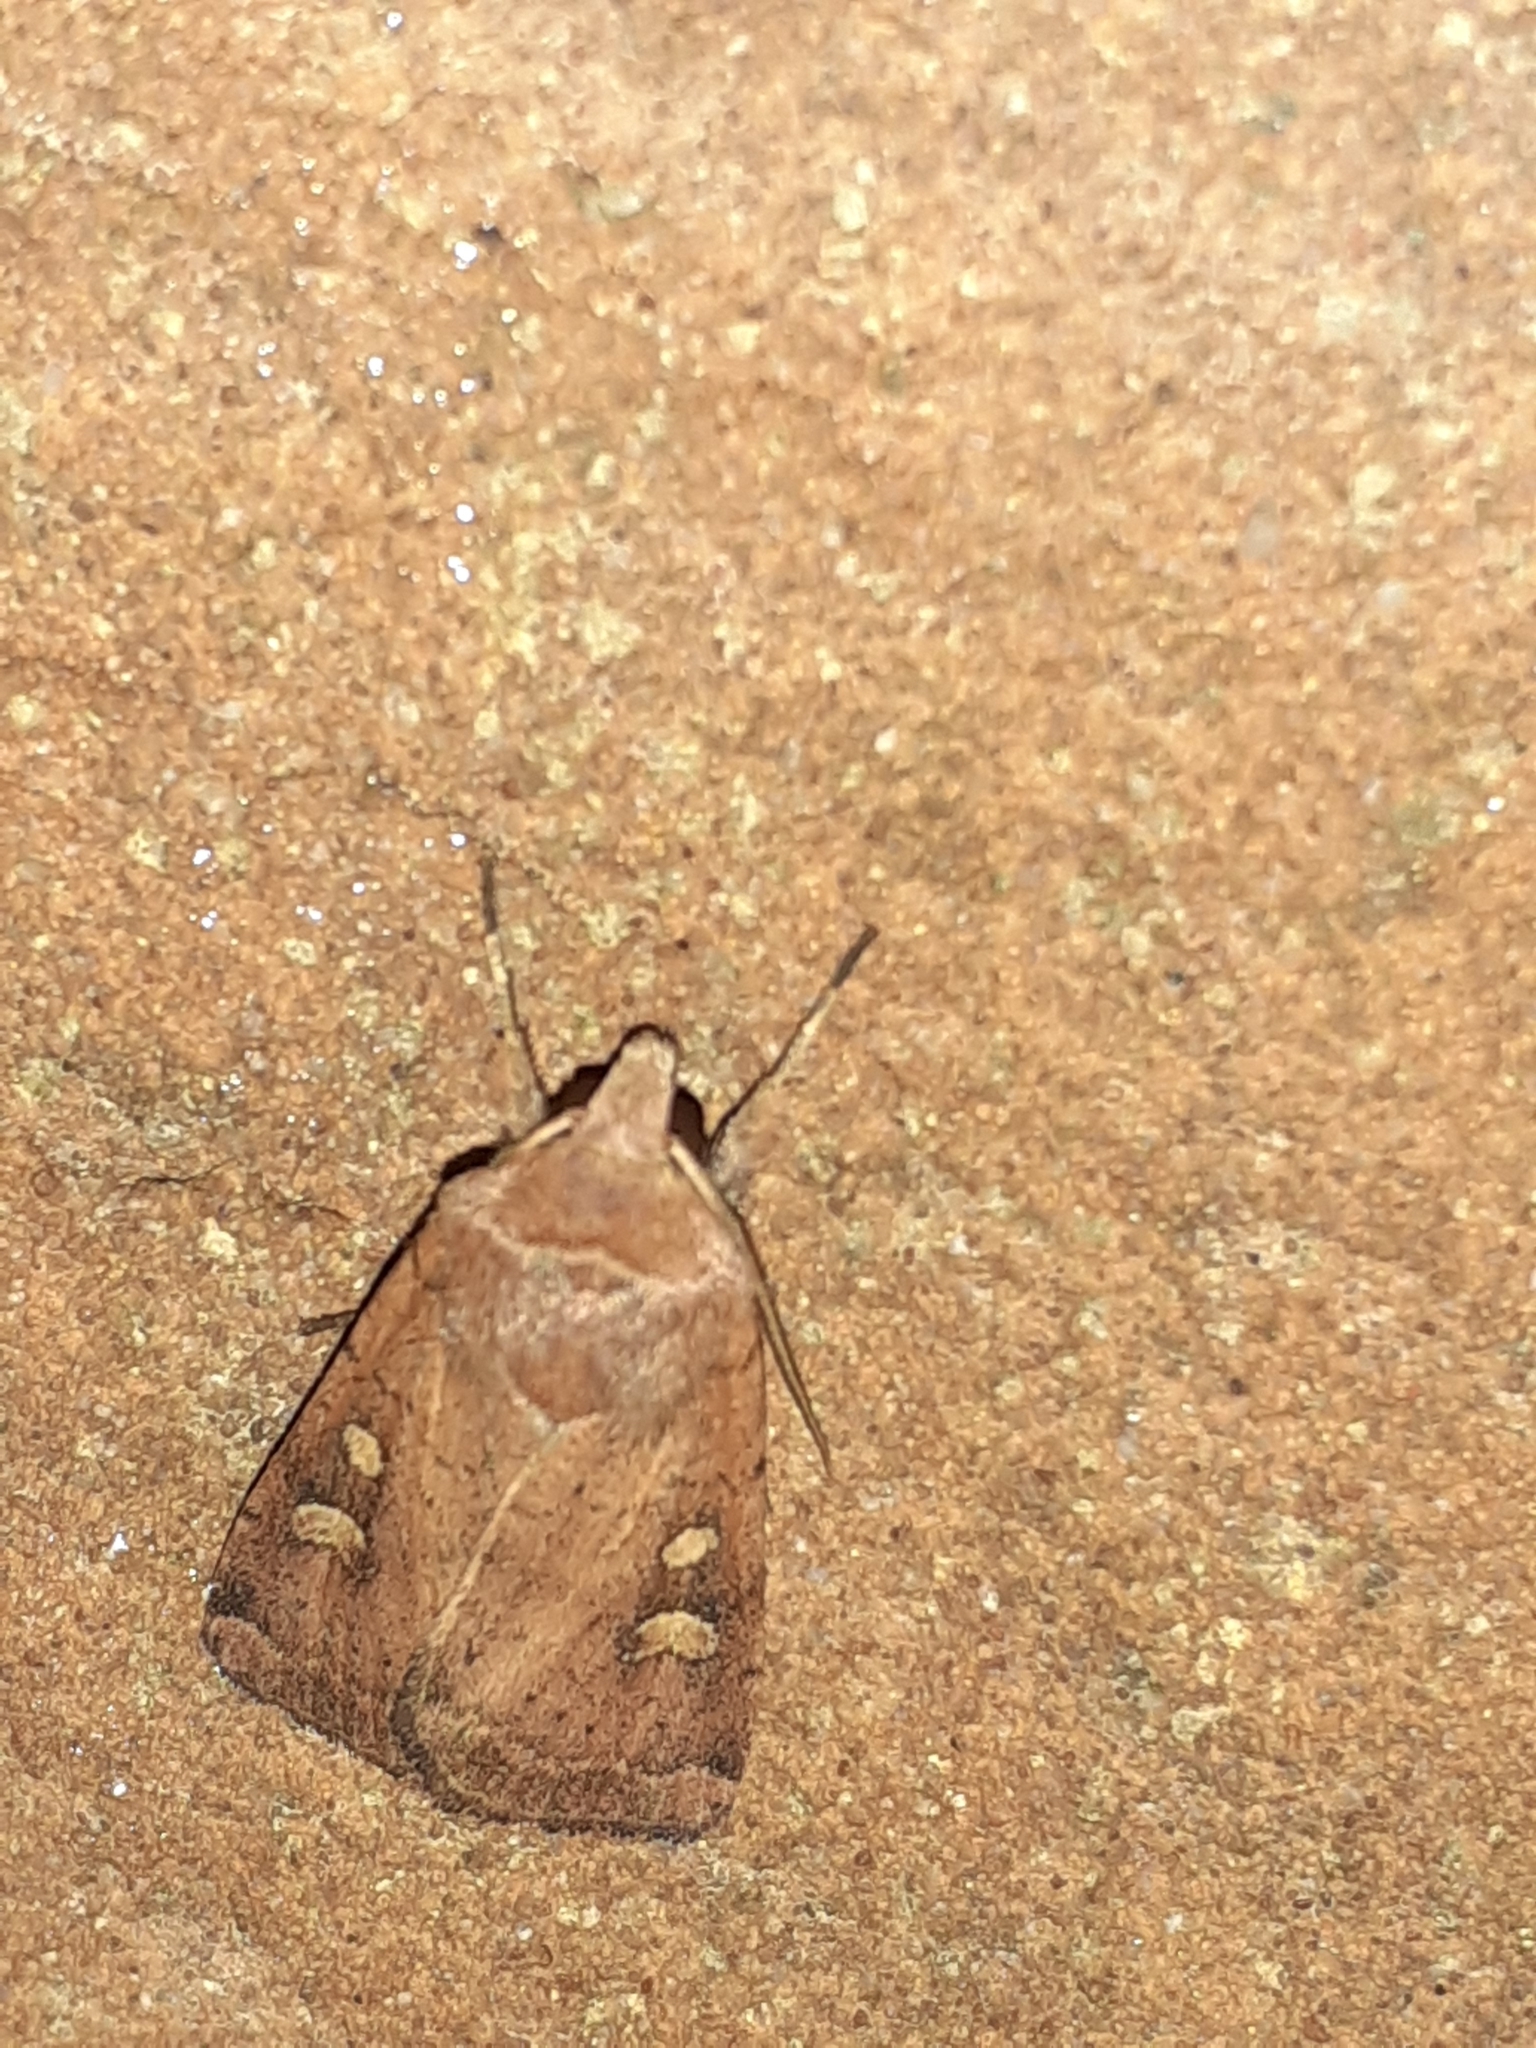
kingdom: Animalia
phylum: Arthropoda
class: Insecta
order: Lepidoptera
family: Noctuidae
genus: Xestia
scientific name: Xestia xanthographa
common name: Square-spot rustic
